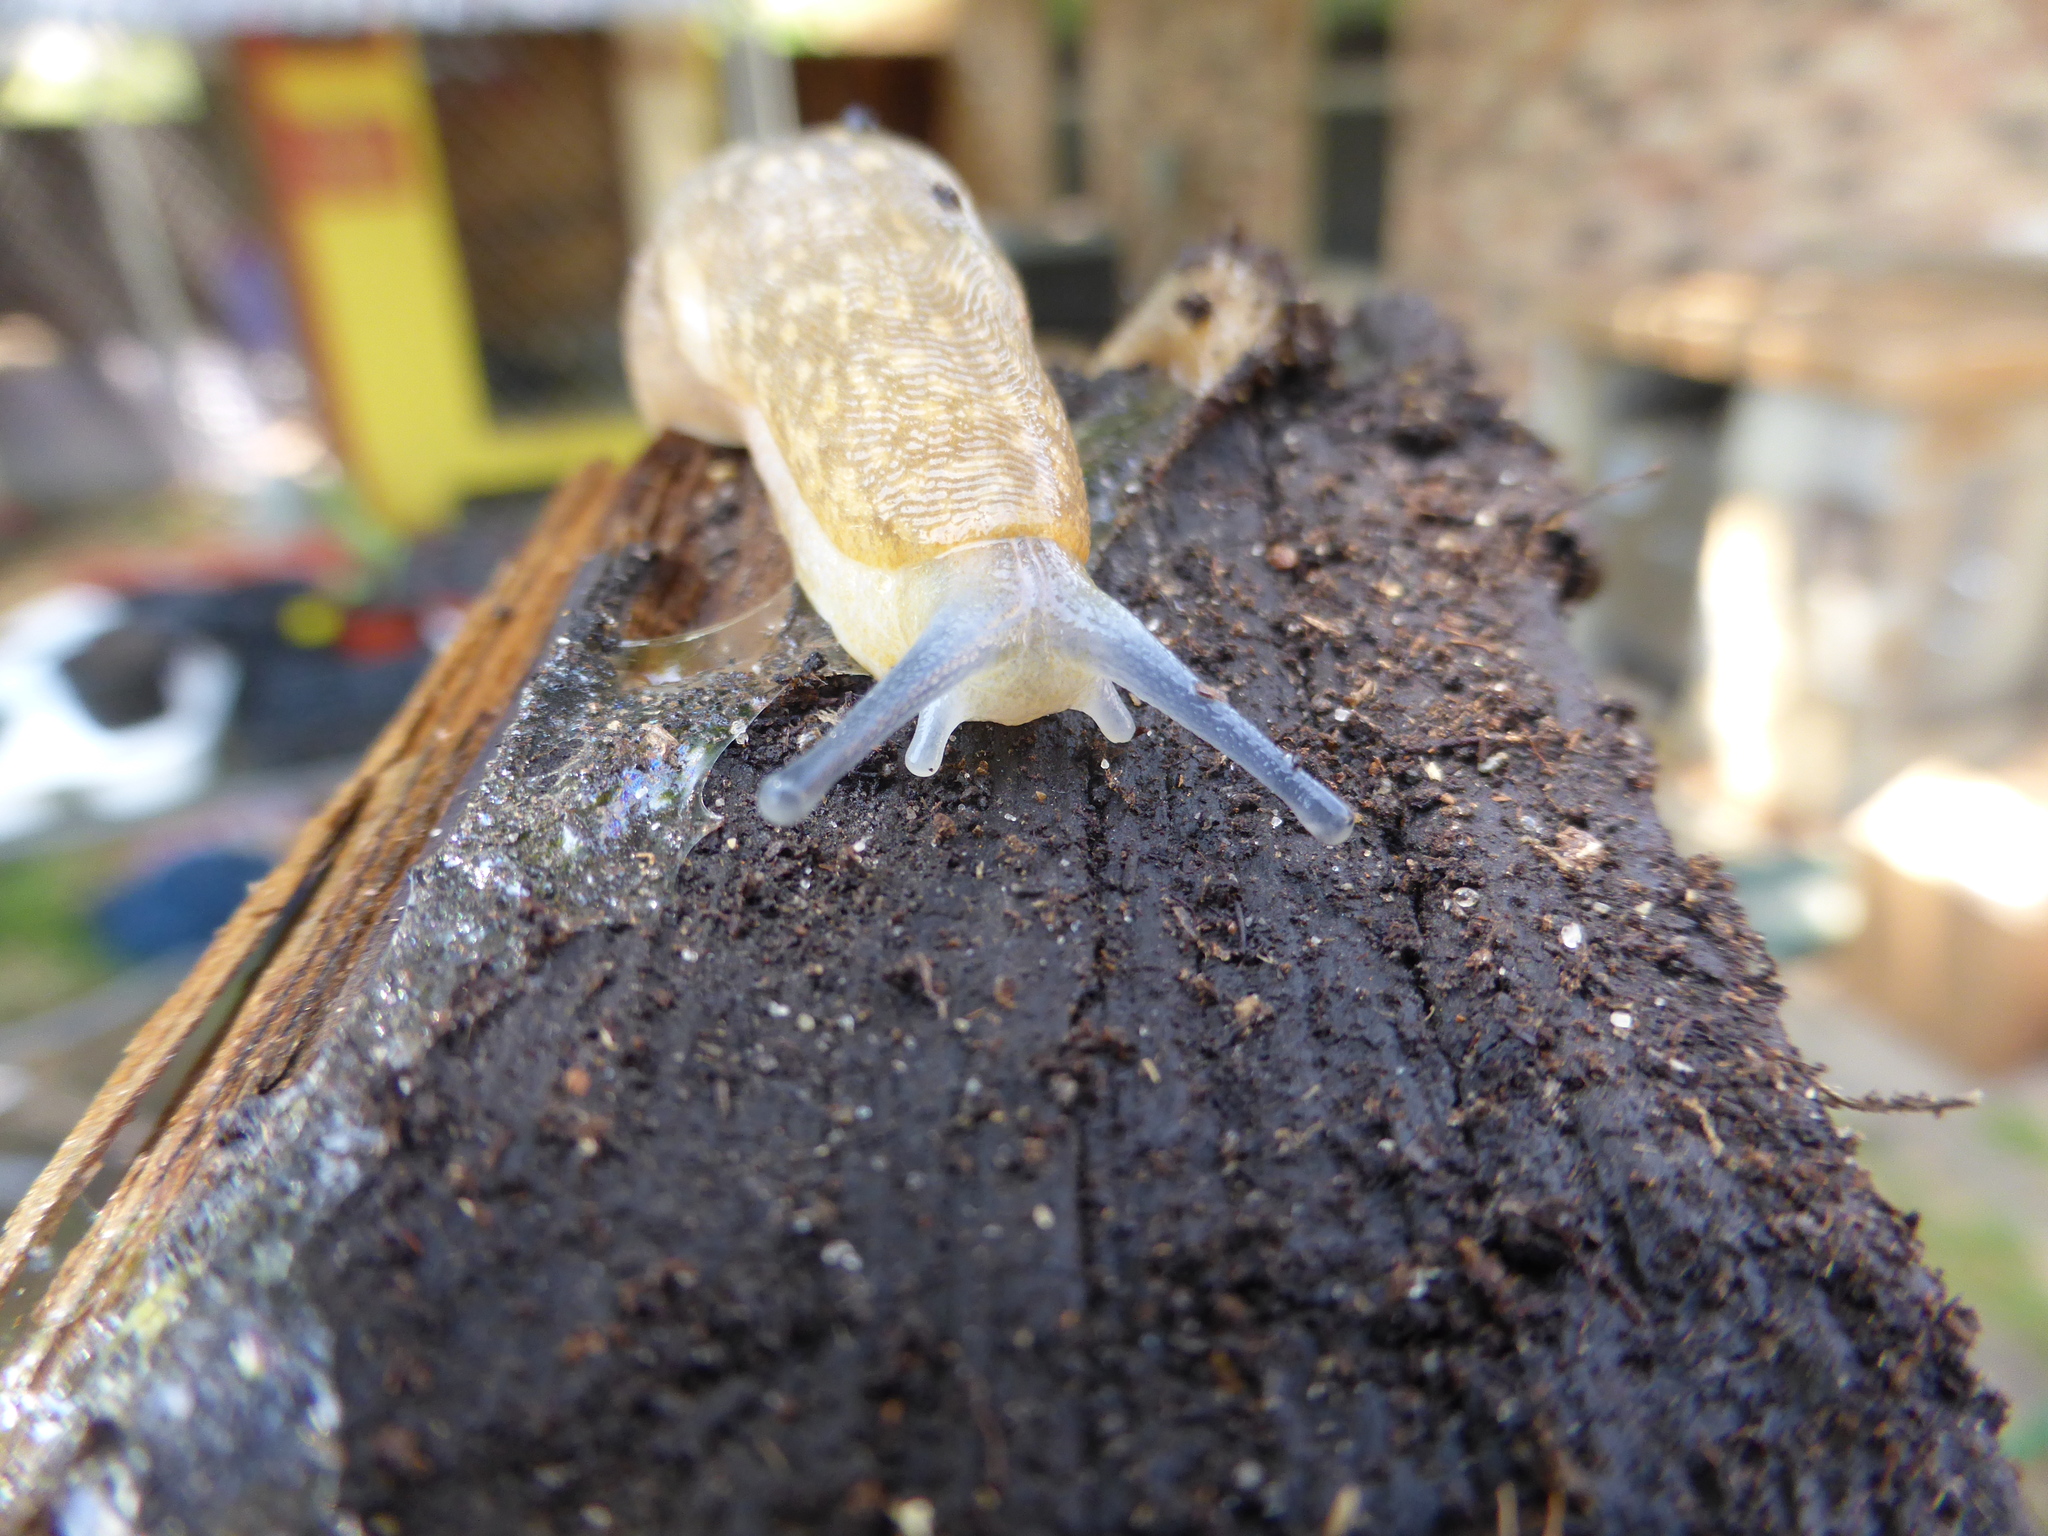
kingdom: Animalia
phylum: Mollusca
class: Gastropoda
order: Stylommatophora
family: Limacidae
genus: Limacus
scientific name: Limacus flavus
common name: Yellow gardenslug
